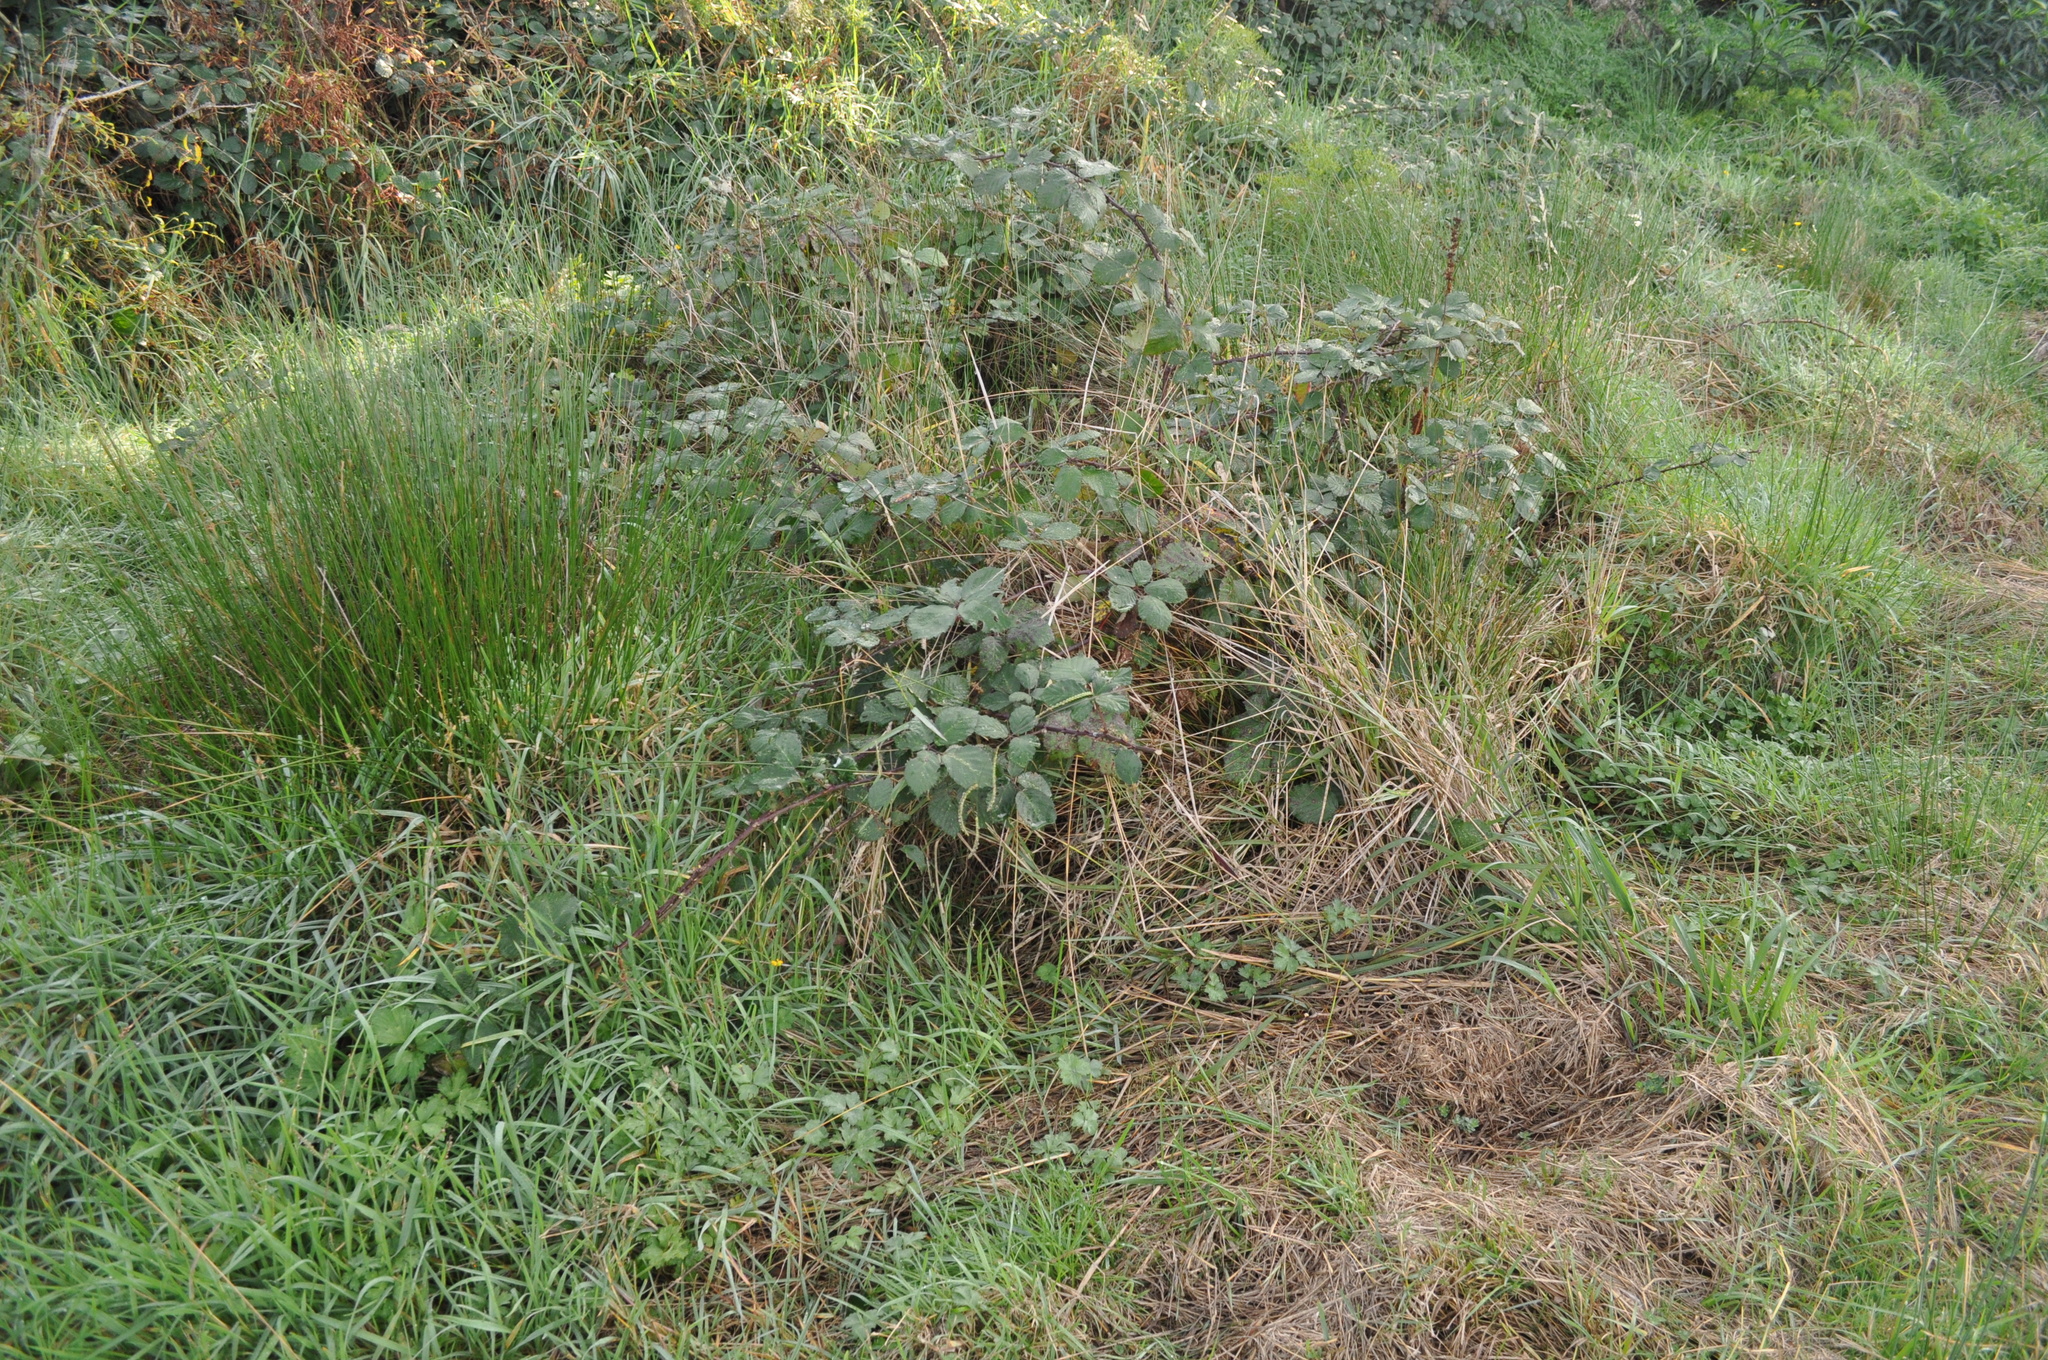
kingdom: Plantae
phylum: Tracheophyta
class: Magnoliopsida
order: Rosales
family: Rosaceae
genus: Rubus
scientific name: Rubus
